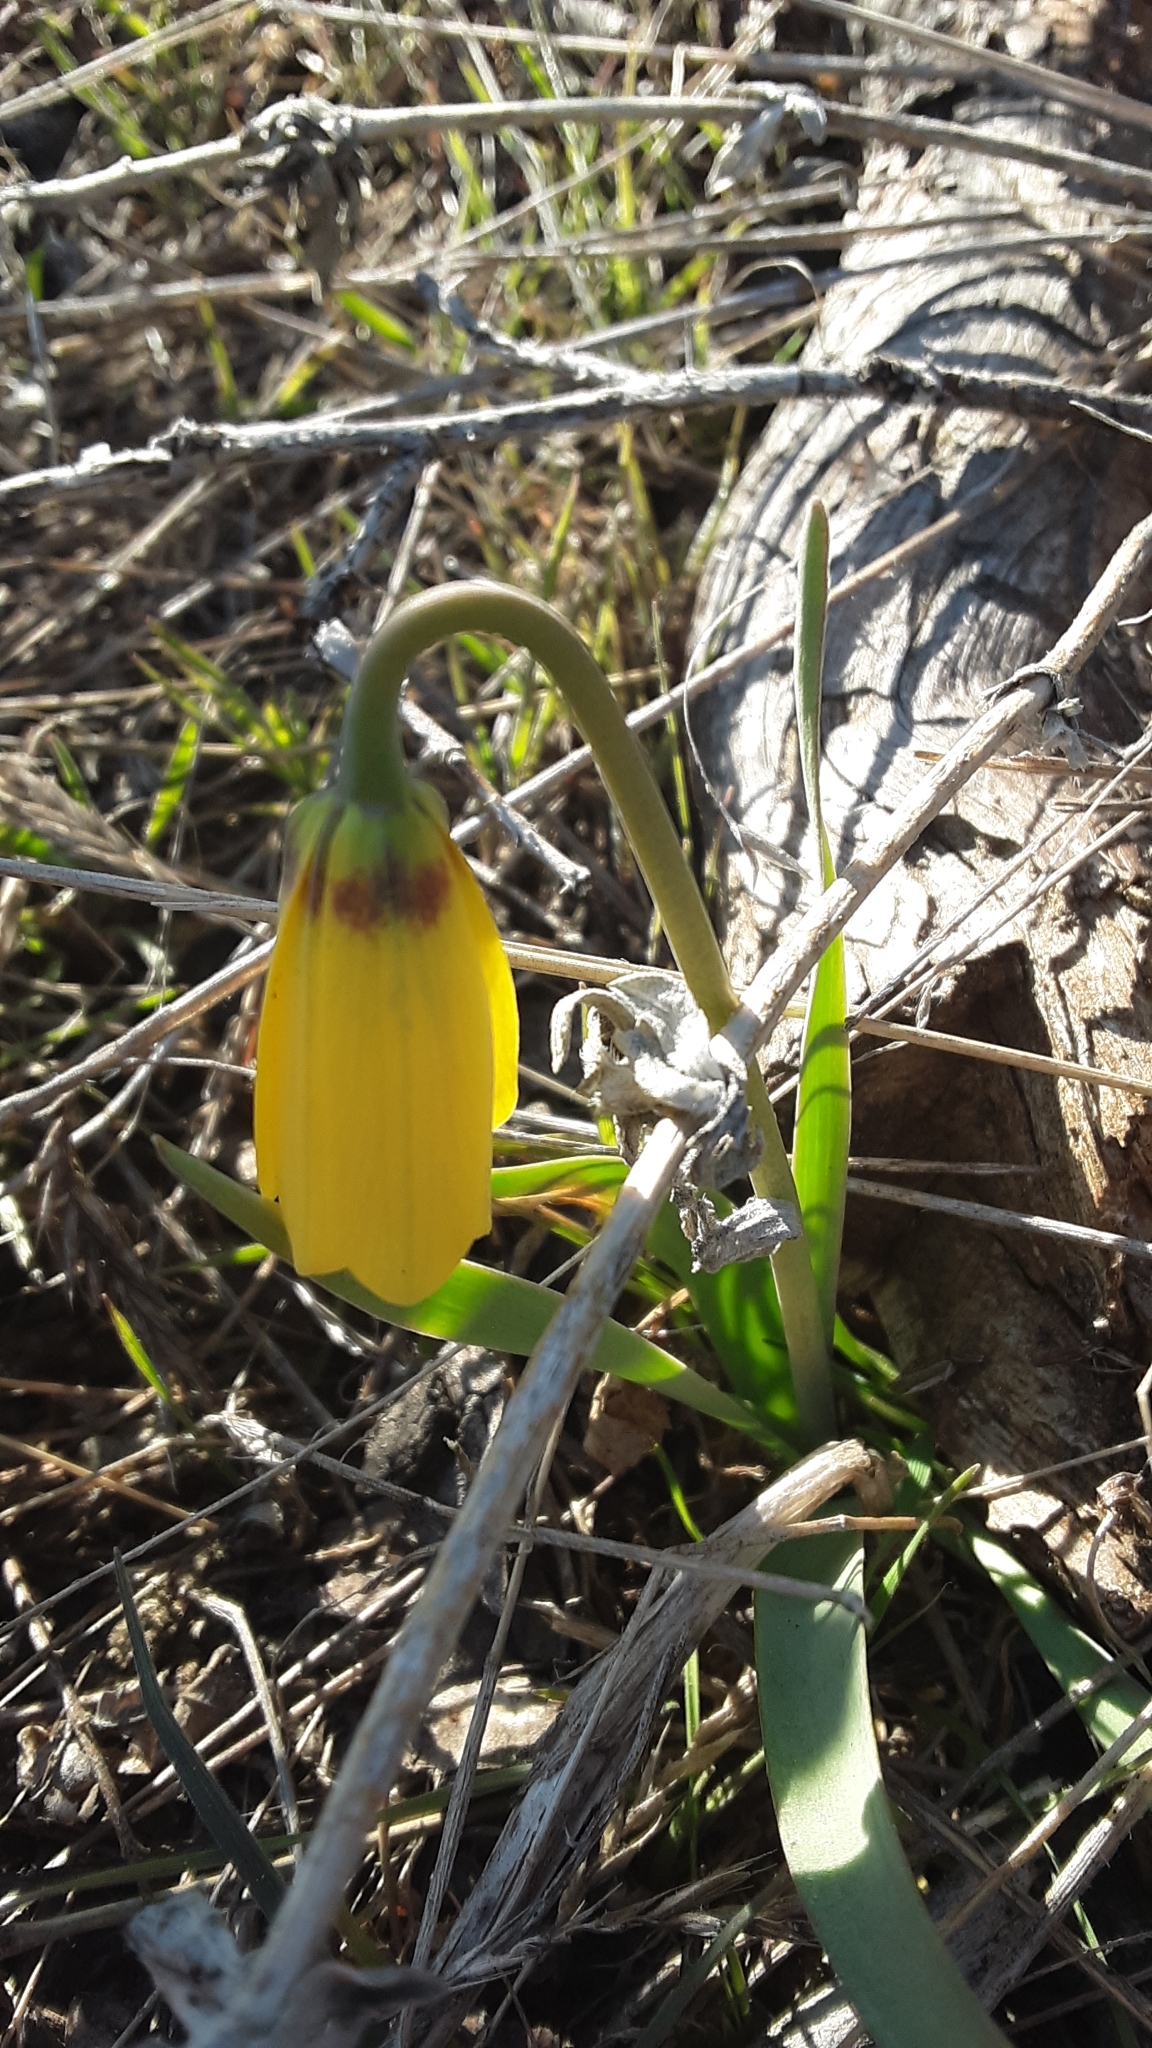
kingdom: Plantae
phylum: Tracheophyta
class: Liliopsida
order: Liliales
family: Liliaceae
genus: Fritillaria
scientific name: Fritillaria pudica
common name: Yellow fritillary
